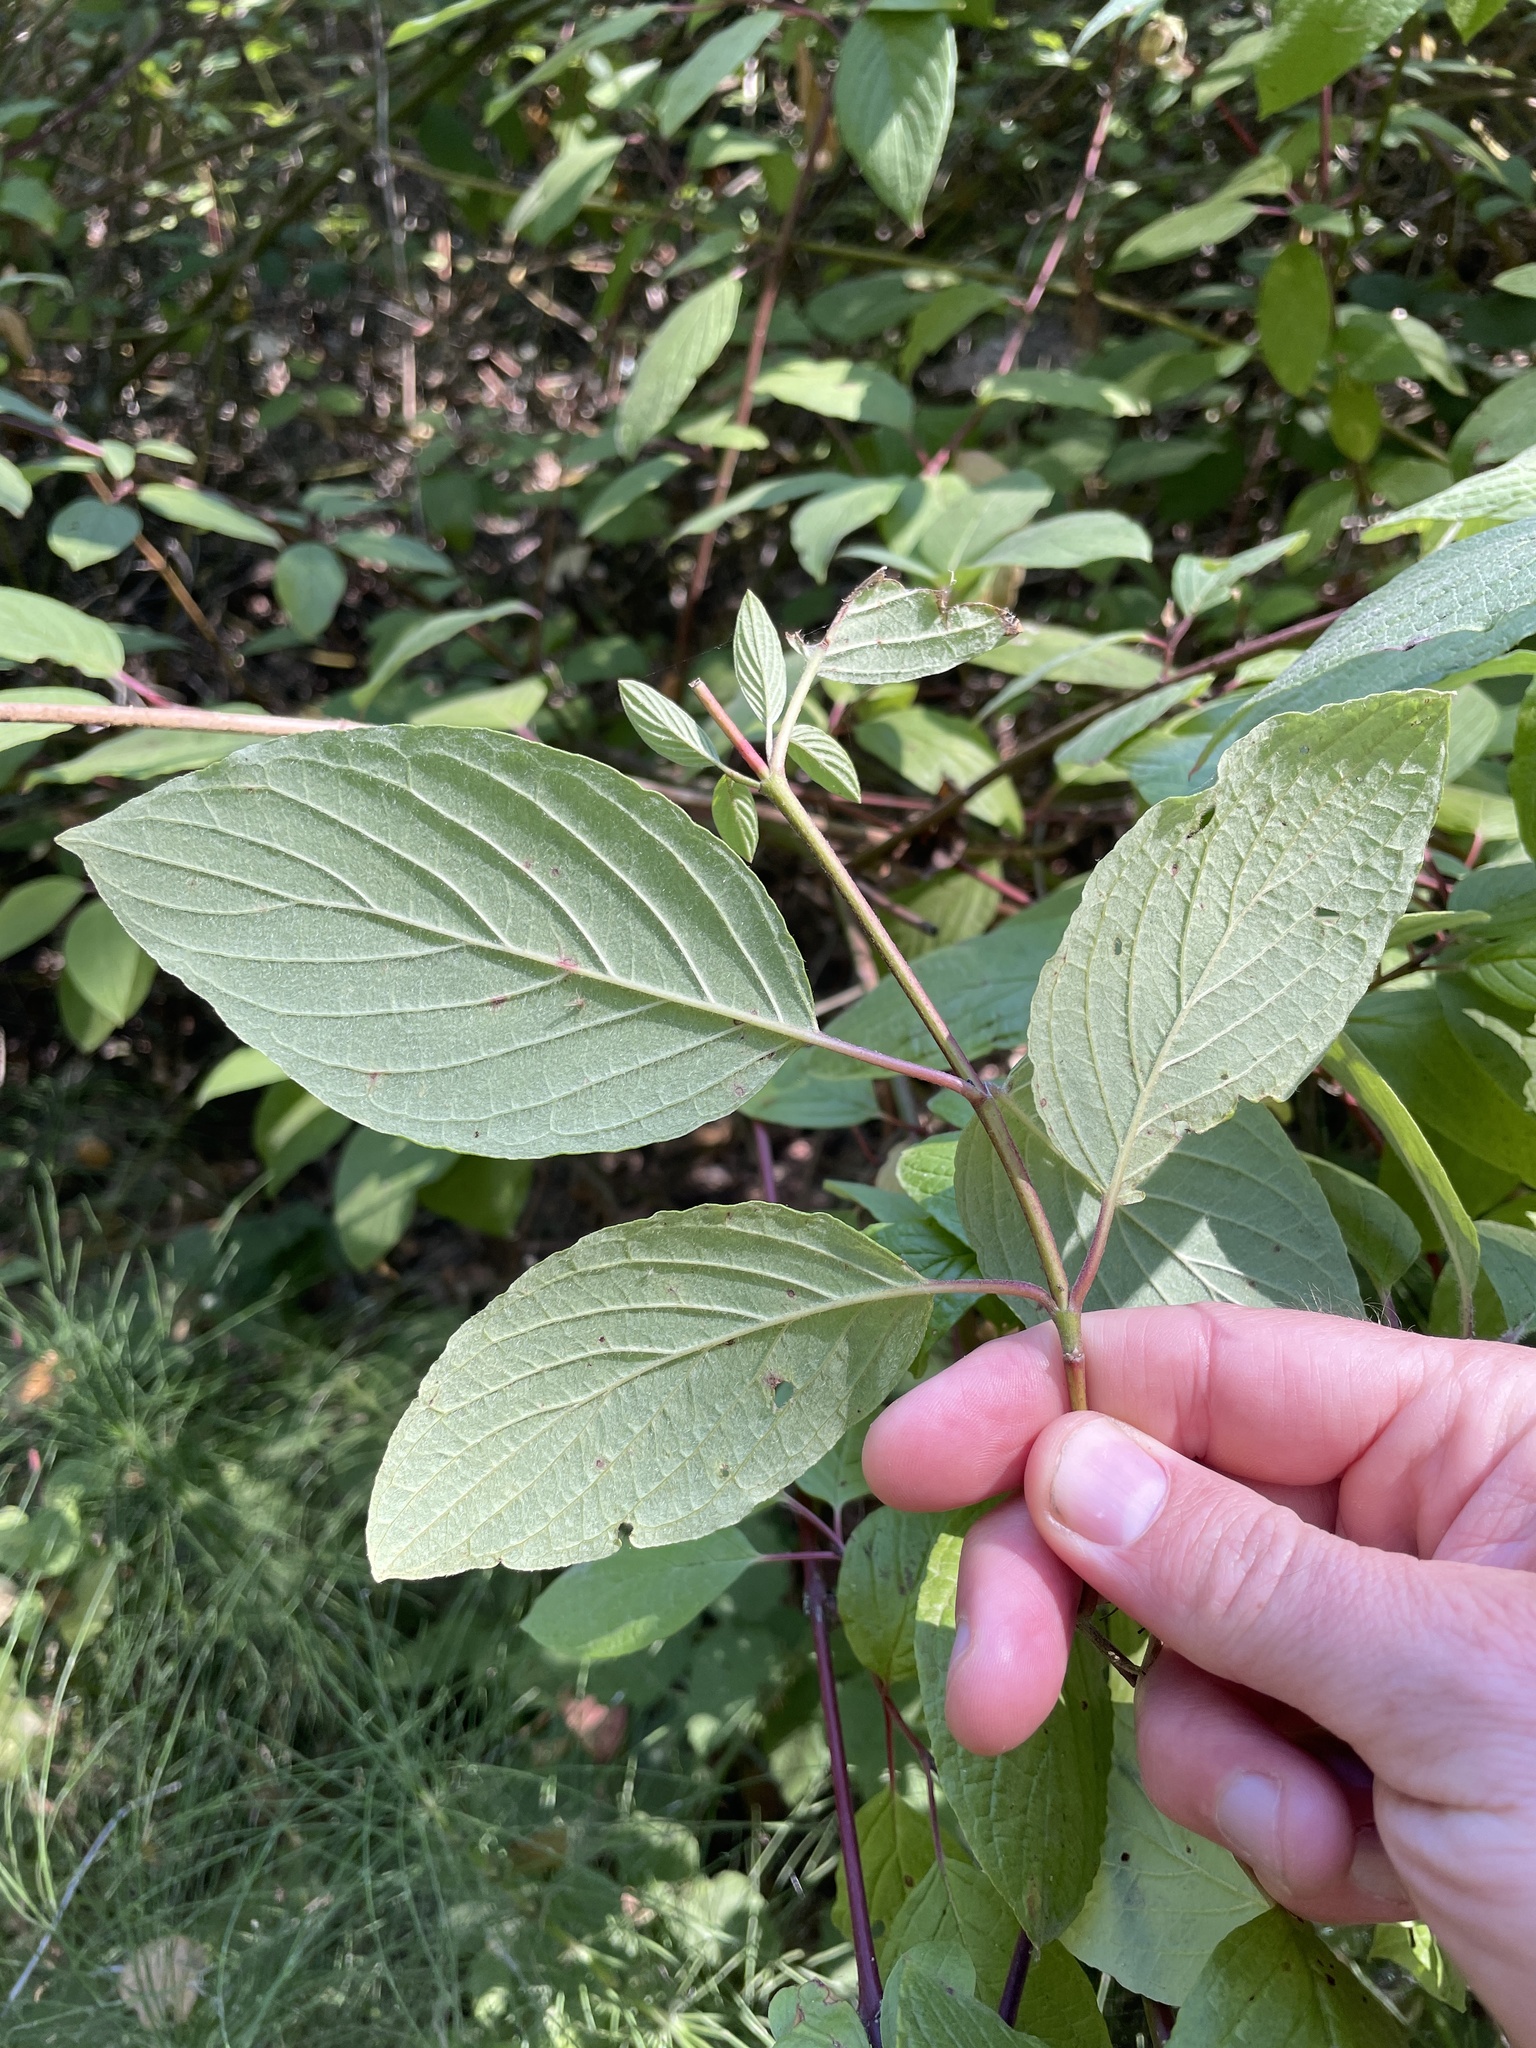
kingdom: Plantae
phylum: Tracheophyta
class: Magnoliopsida
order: Cornales
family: Cornaceae
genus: Cornus
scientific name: Cornus sericea
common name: Red-osier dogwood
